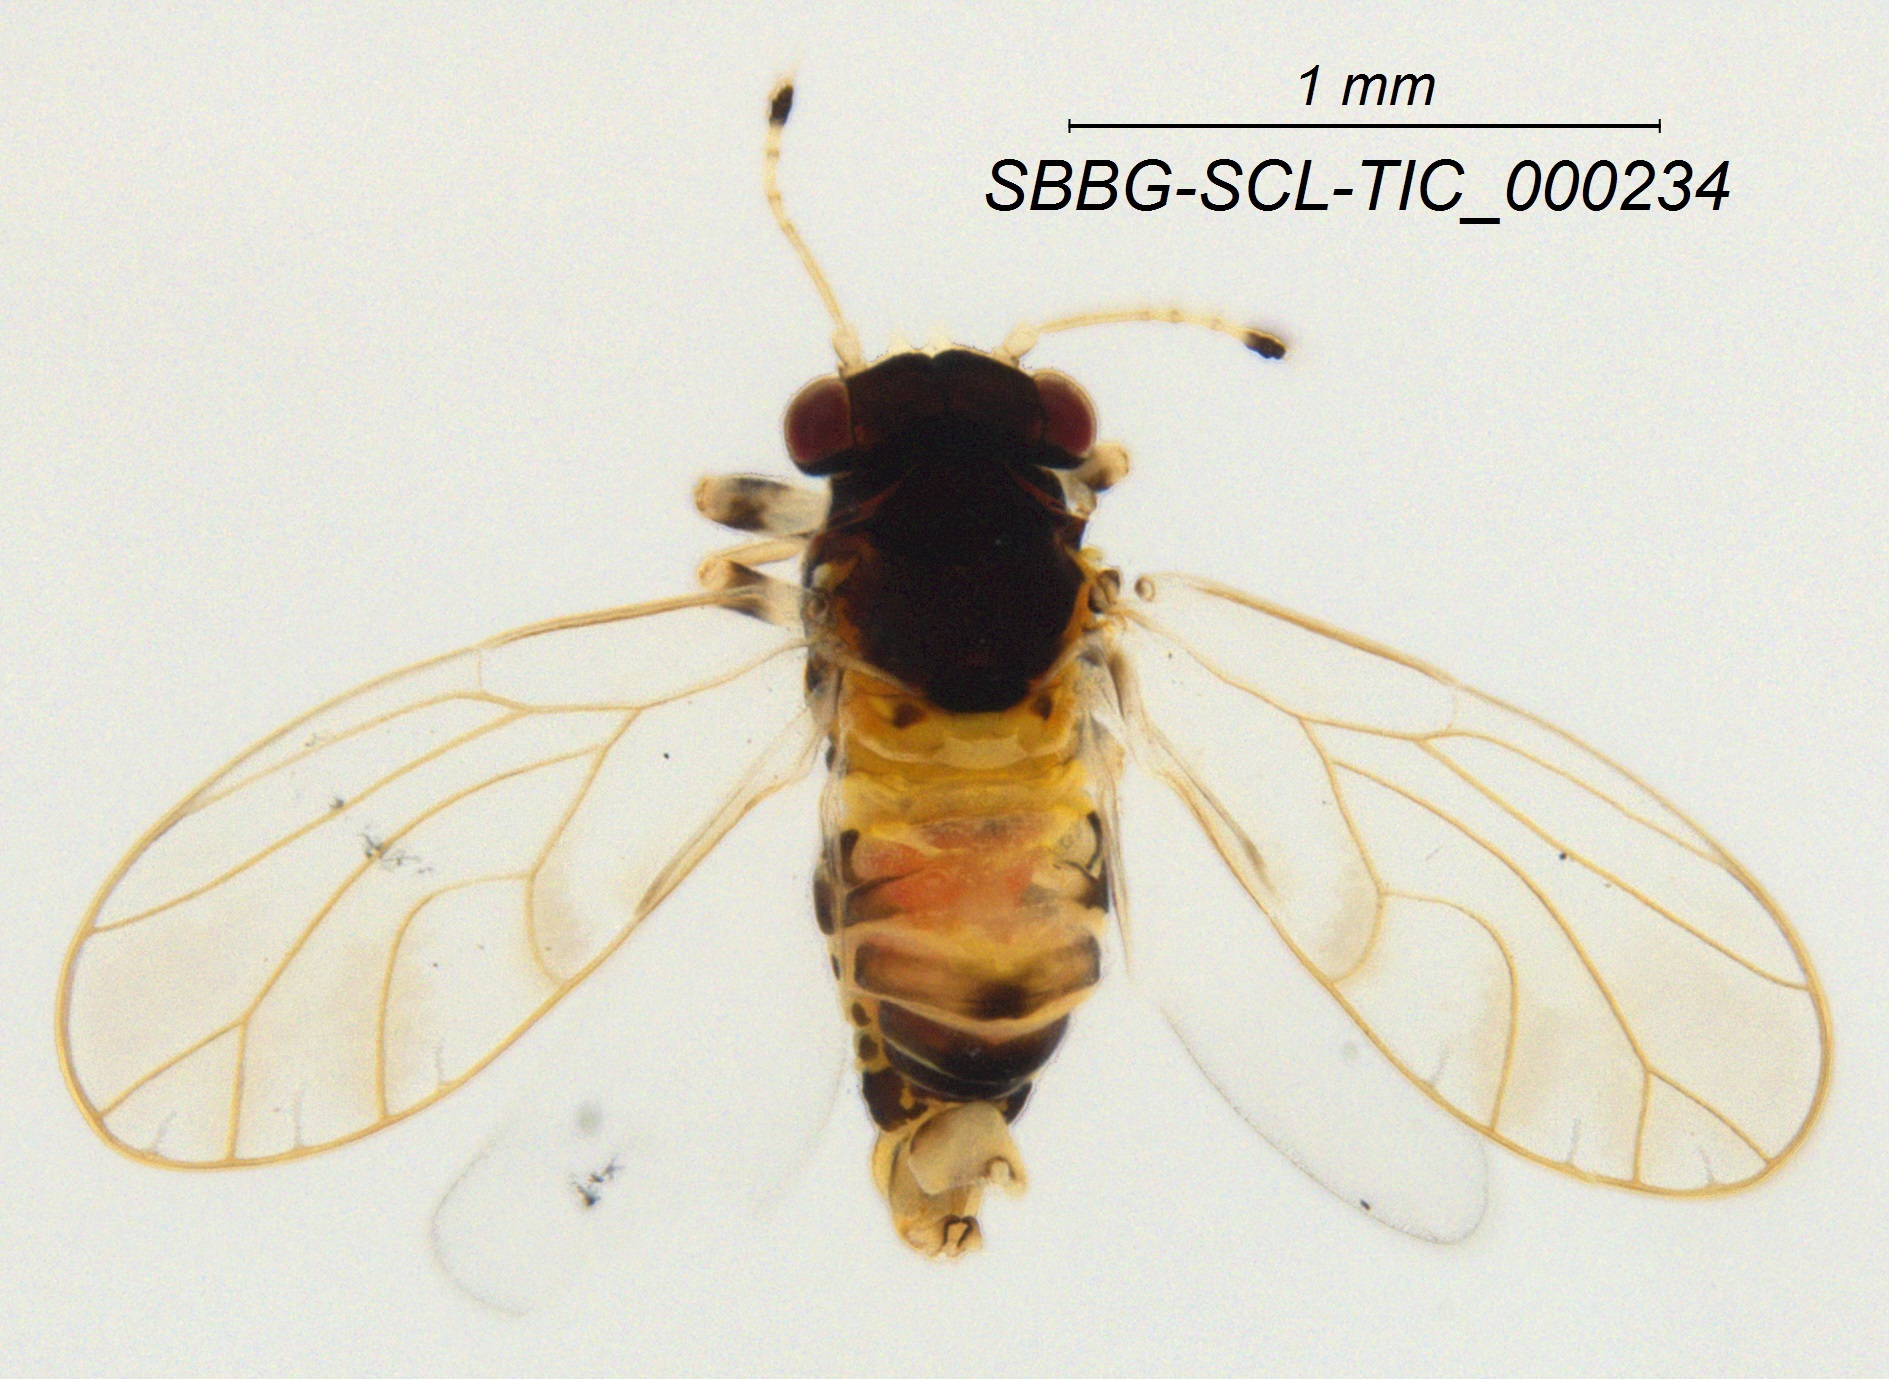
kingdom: Animalia
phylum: Arthropoda
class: Insecta
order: Hemiptera
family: Calophyidae
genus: Calophya
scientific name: Calophya californica
